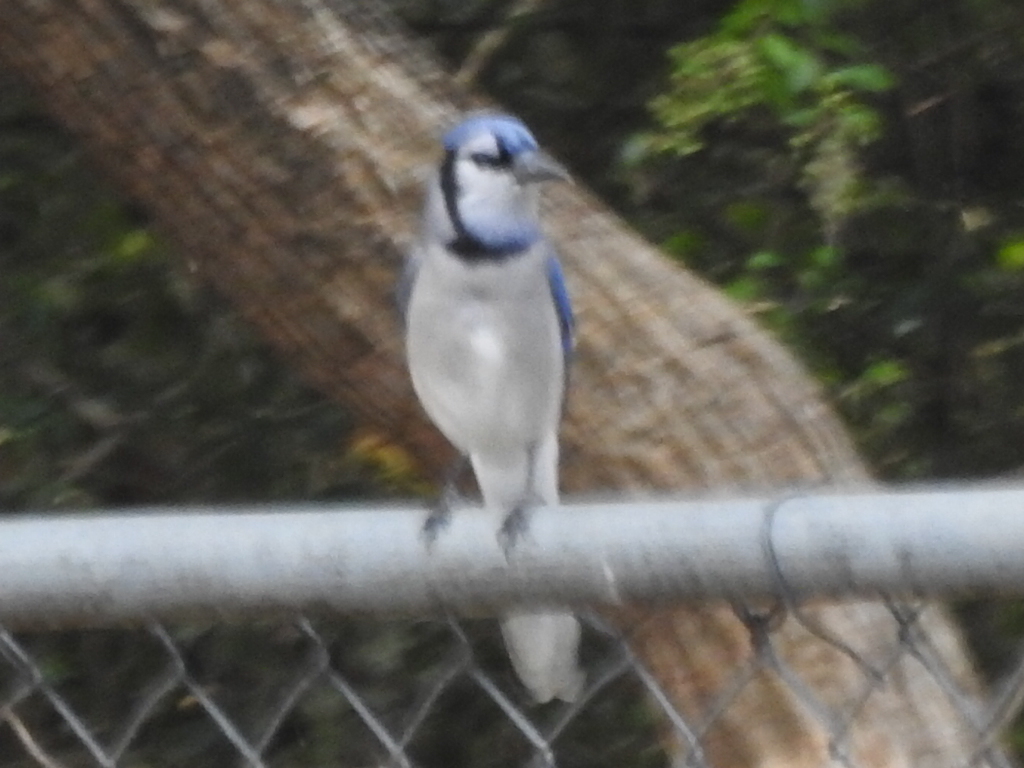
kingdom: Animalia
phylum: Chordata
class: Aves
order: Passeriformes
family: Corvidae
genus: Cyanocitta
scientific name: Cyanocitta cristata
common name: Blue jay
